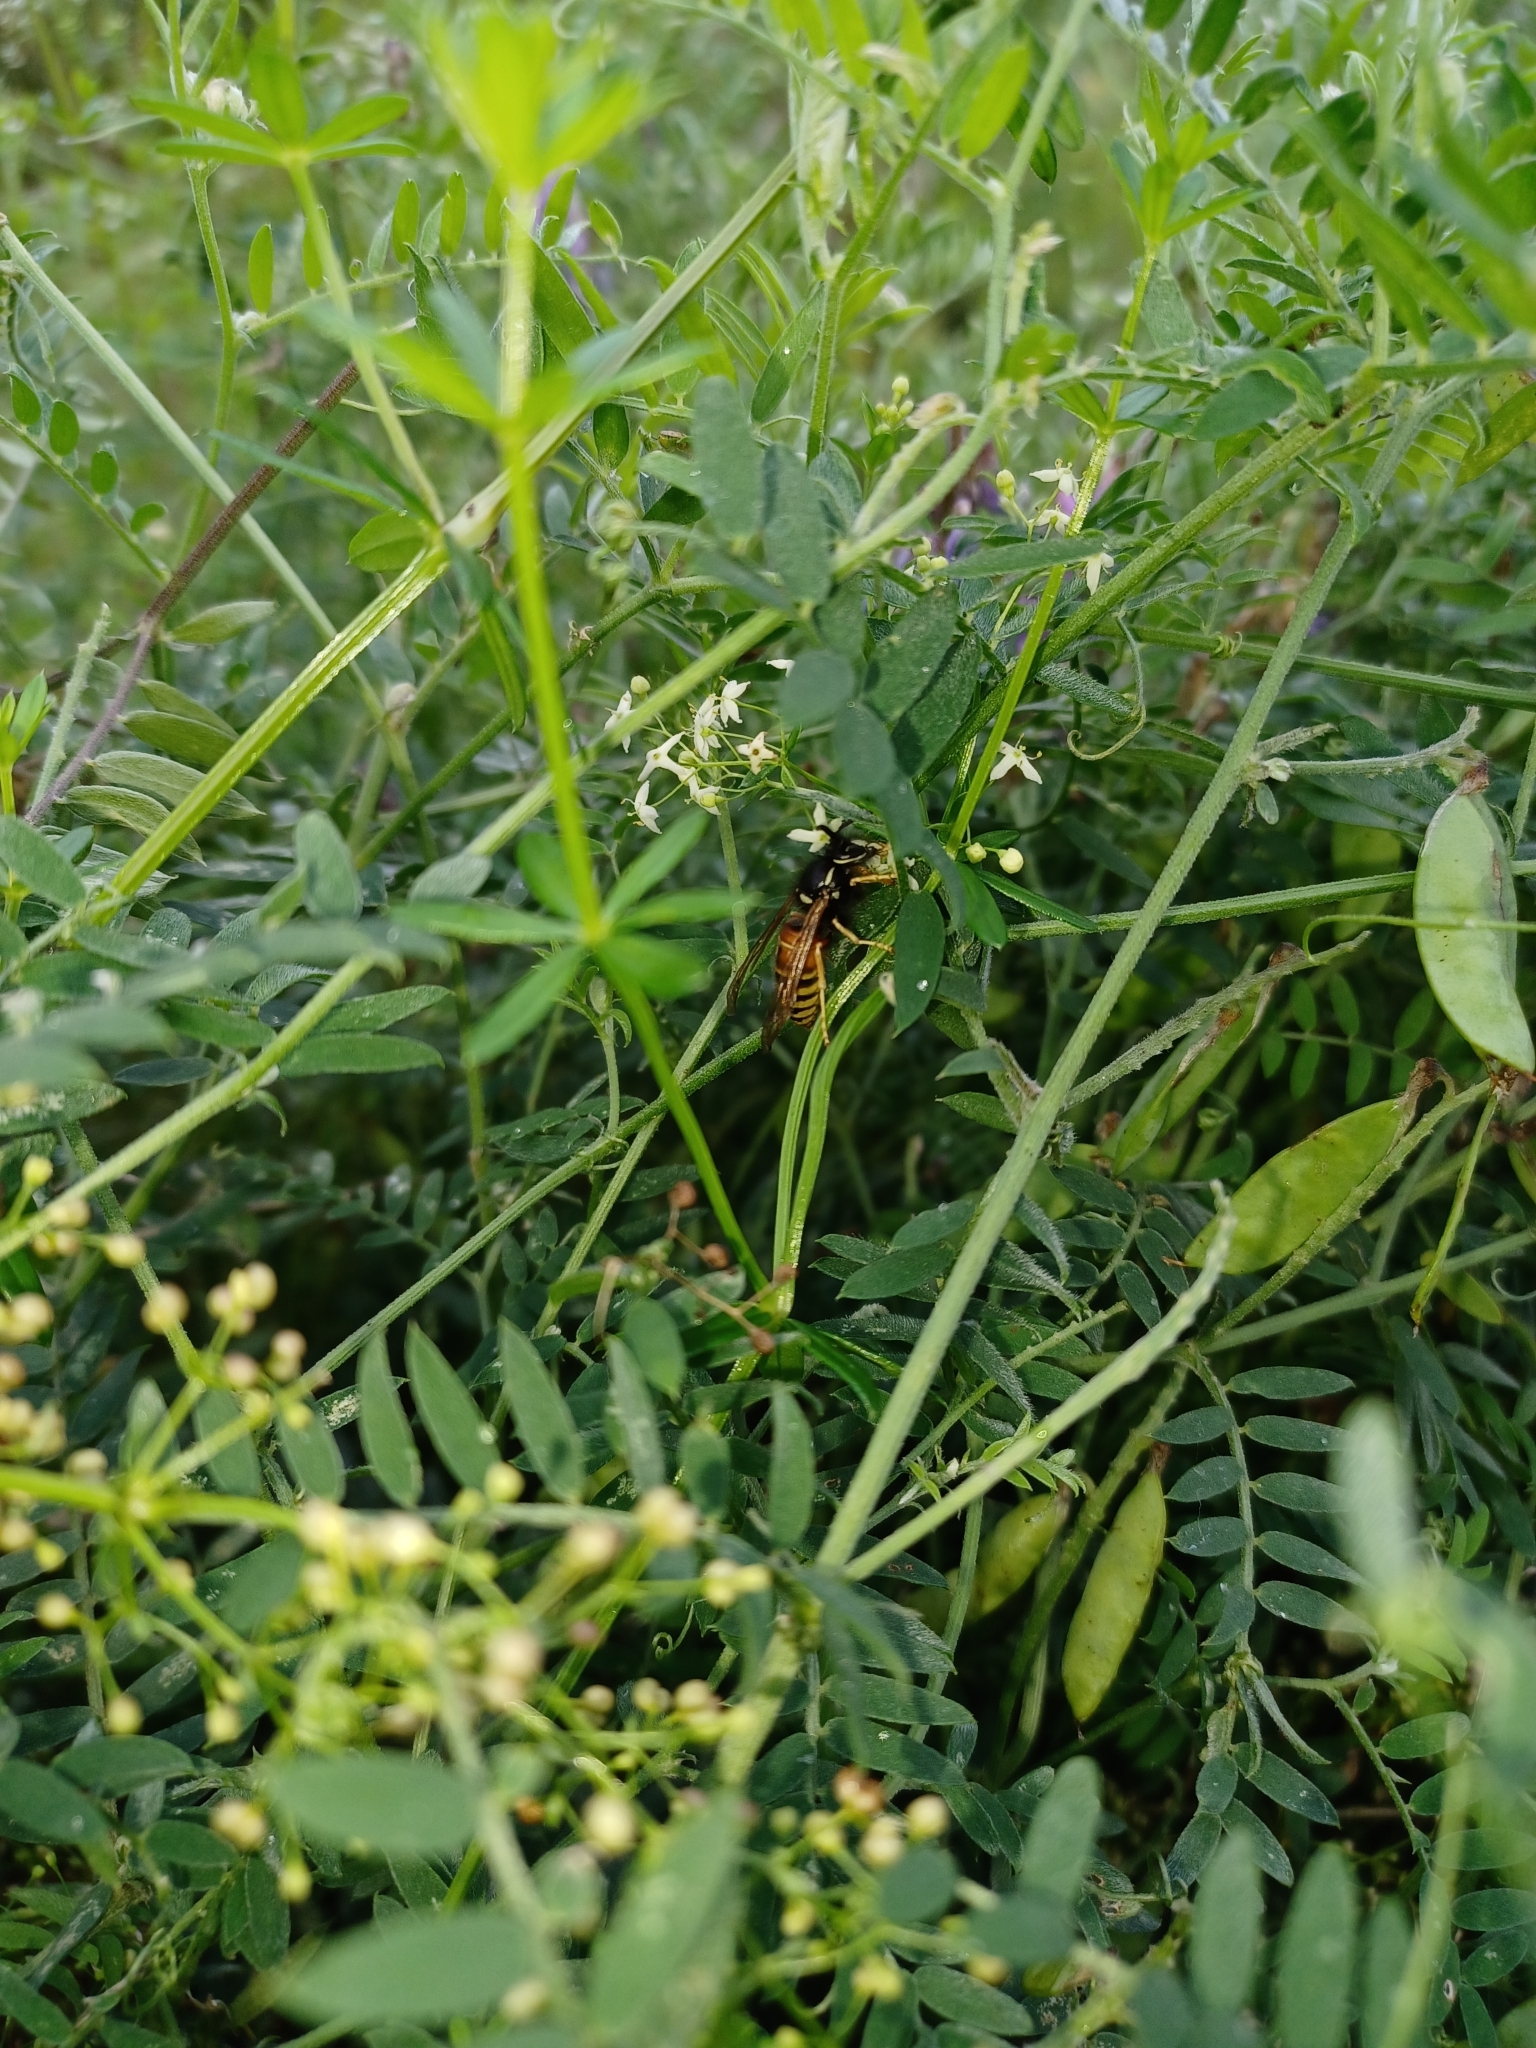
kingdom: Animalia
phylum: Arthropoda
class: Insecta
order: Hymenoptera
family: Vespidae
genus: Vespula
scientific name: Vespula rufa
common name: Red wasp
